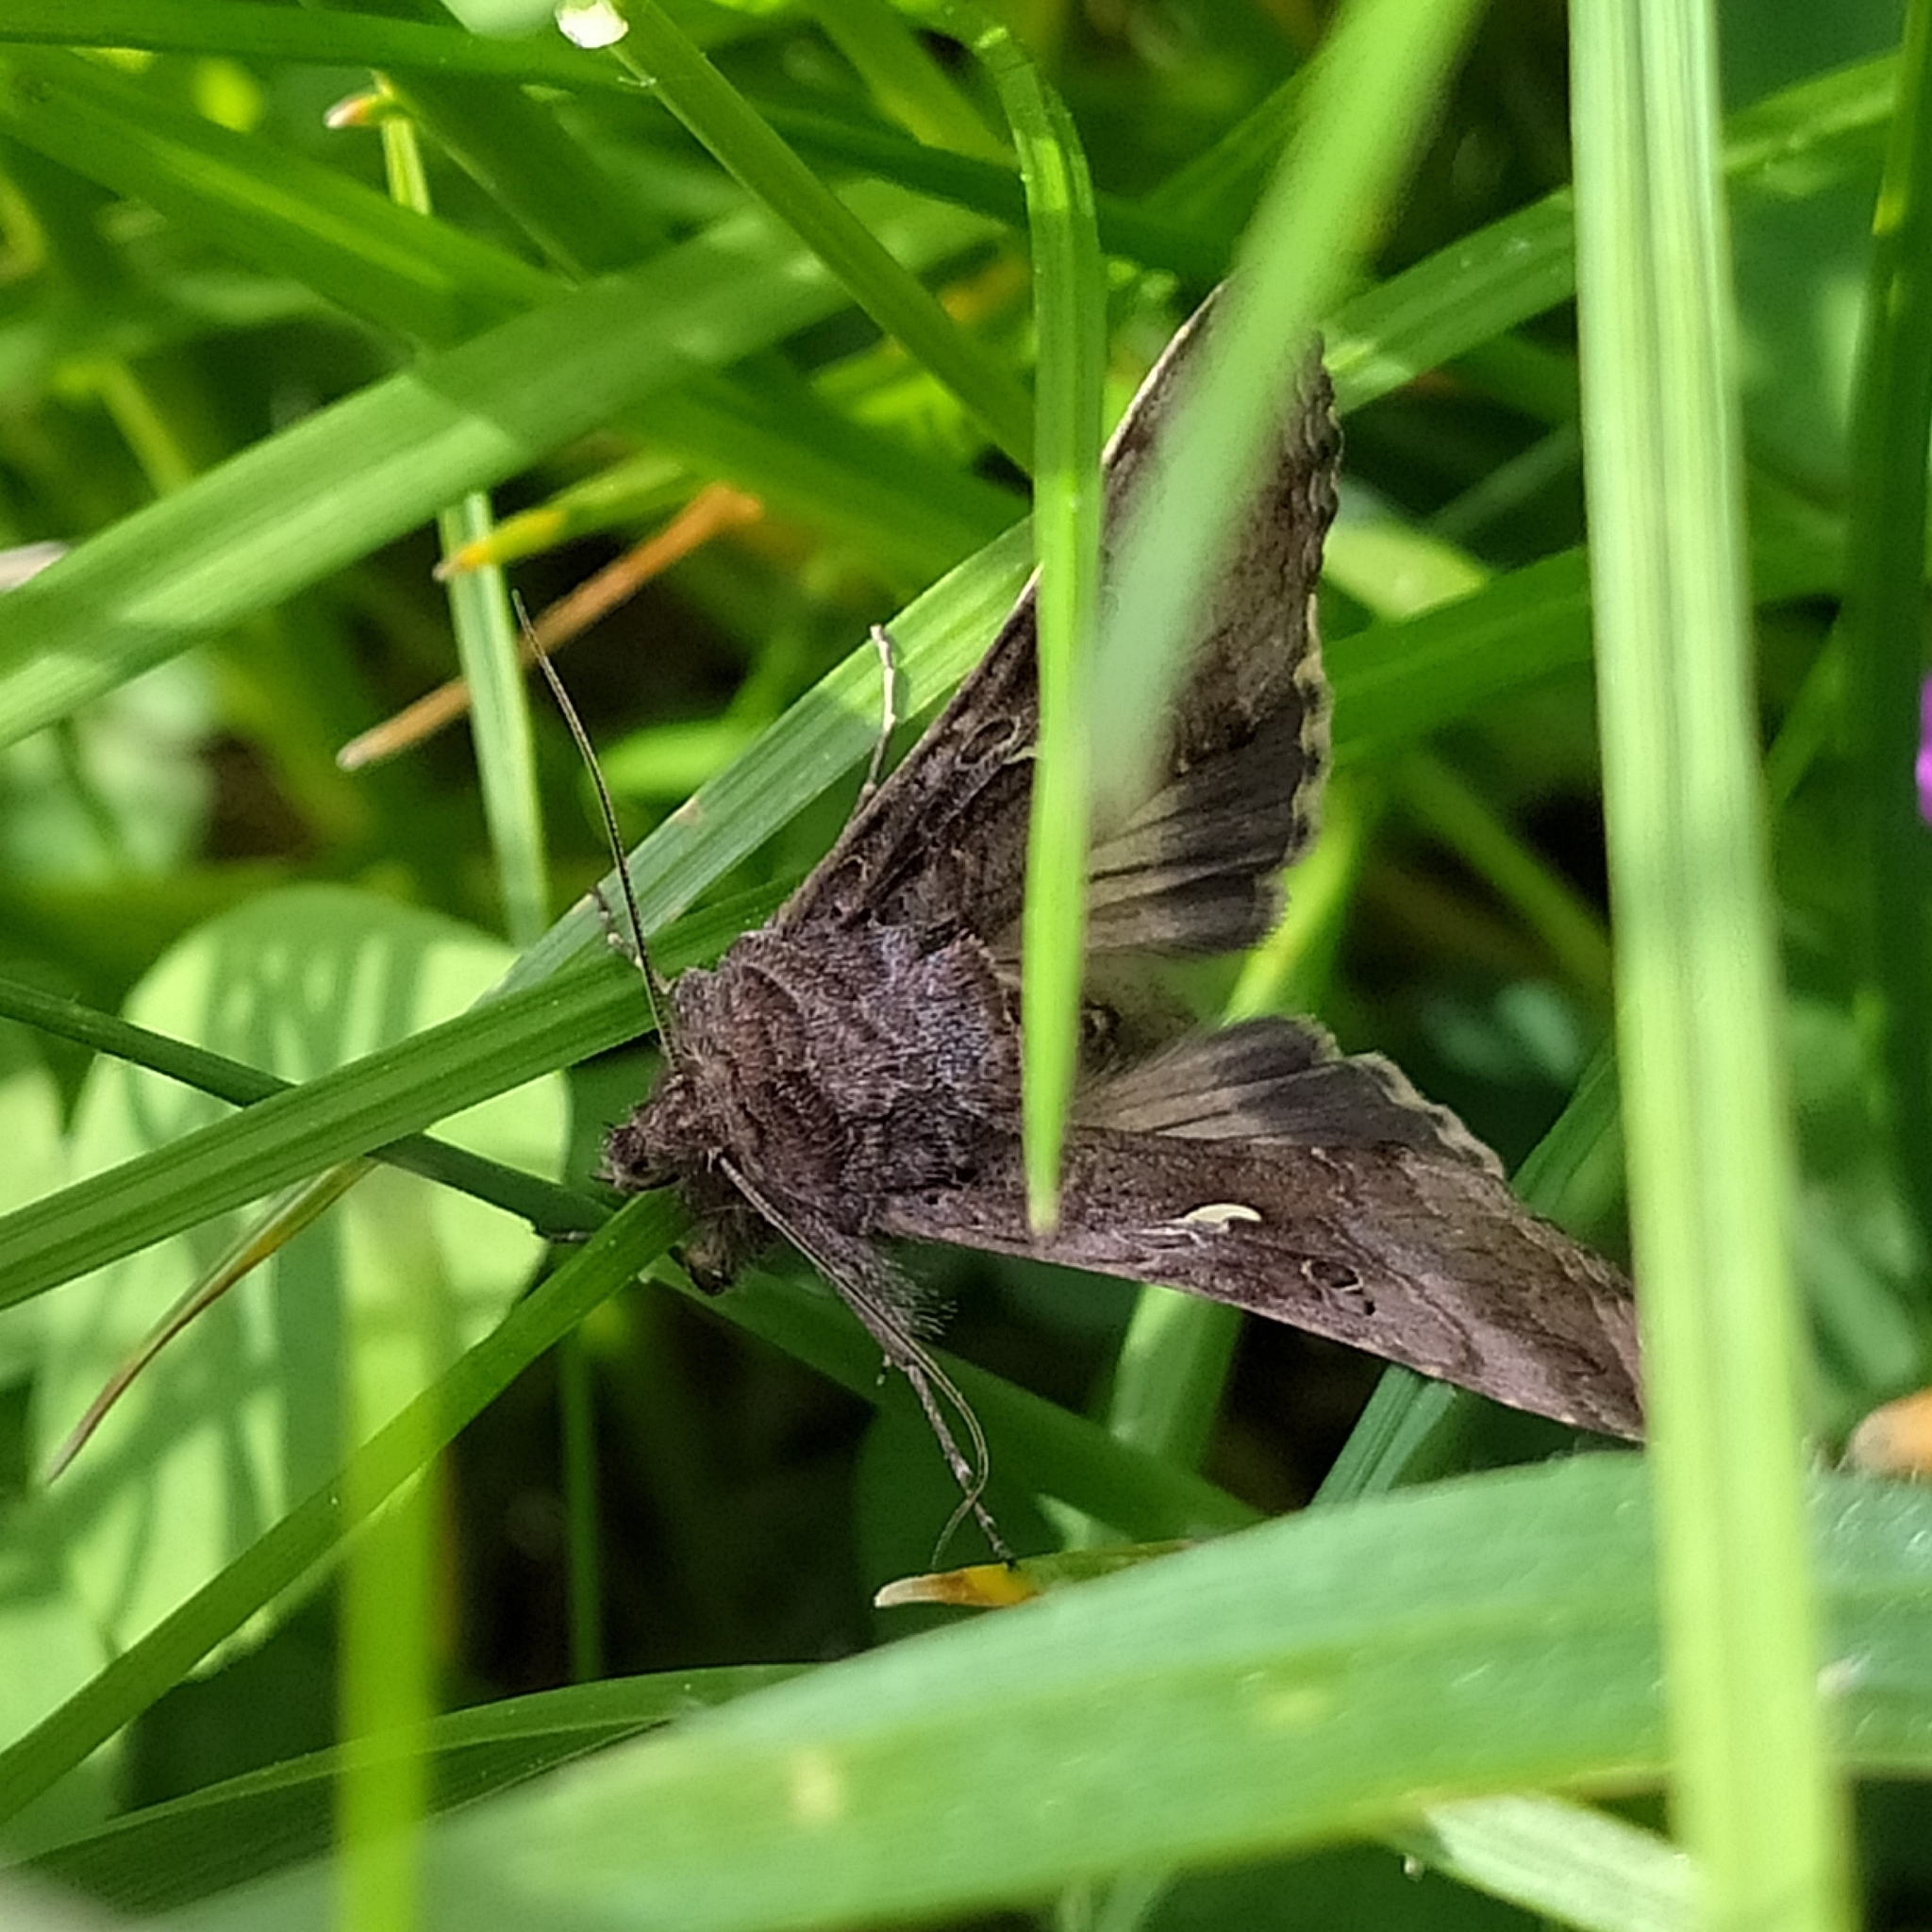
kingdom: Animalia
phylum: Arthropoda
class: Insecta
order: Lepidoptera
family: Noctuidae
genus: Autographa
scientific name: Autographa gamma
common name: Silver y
